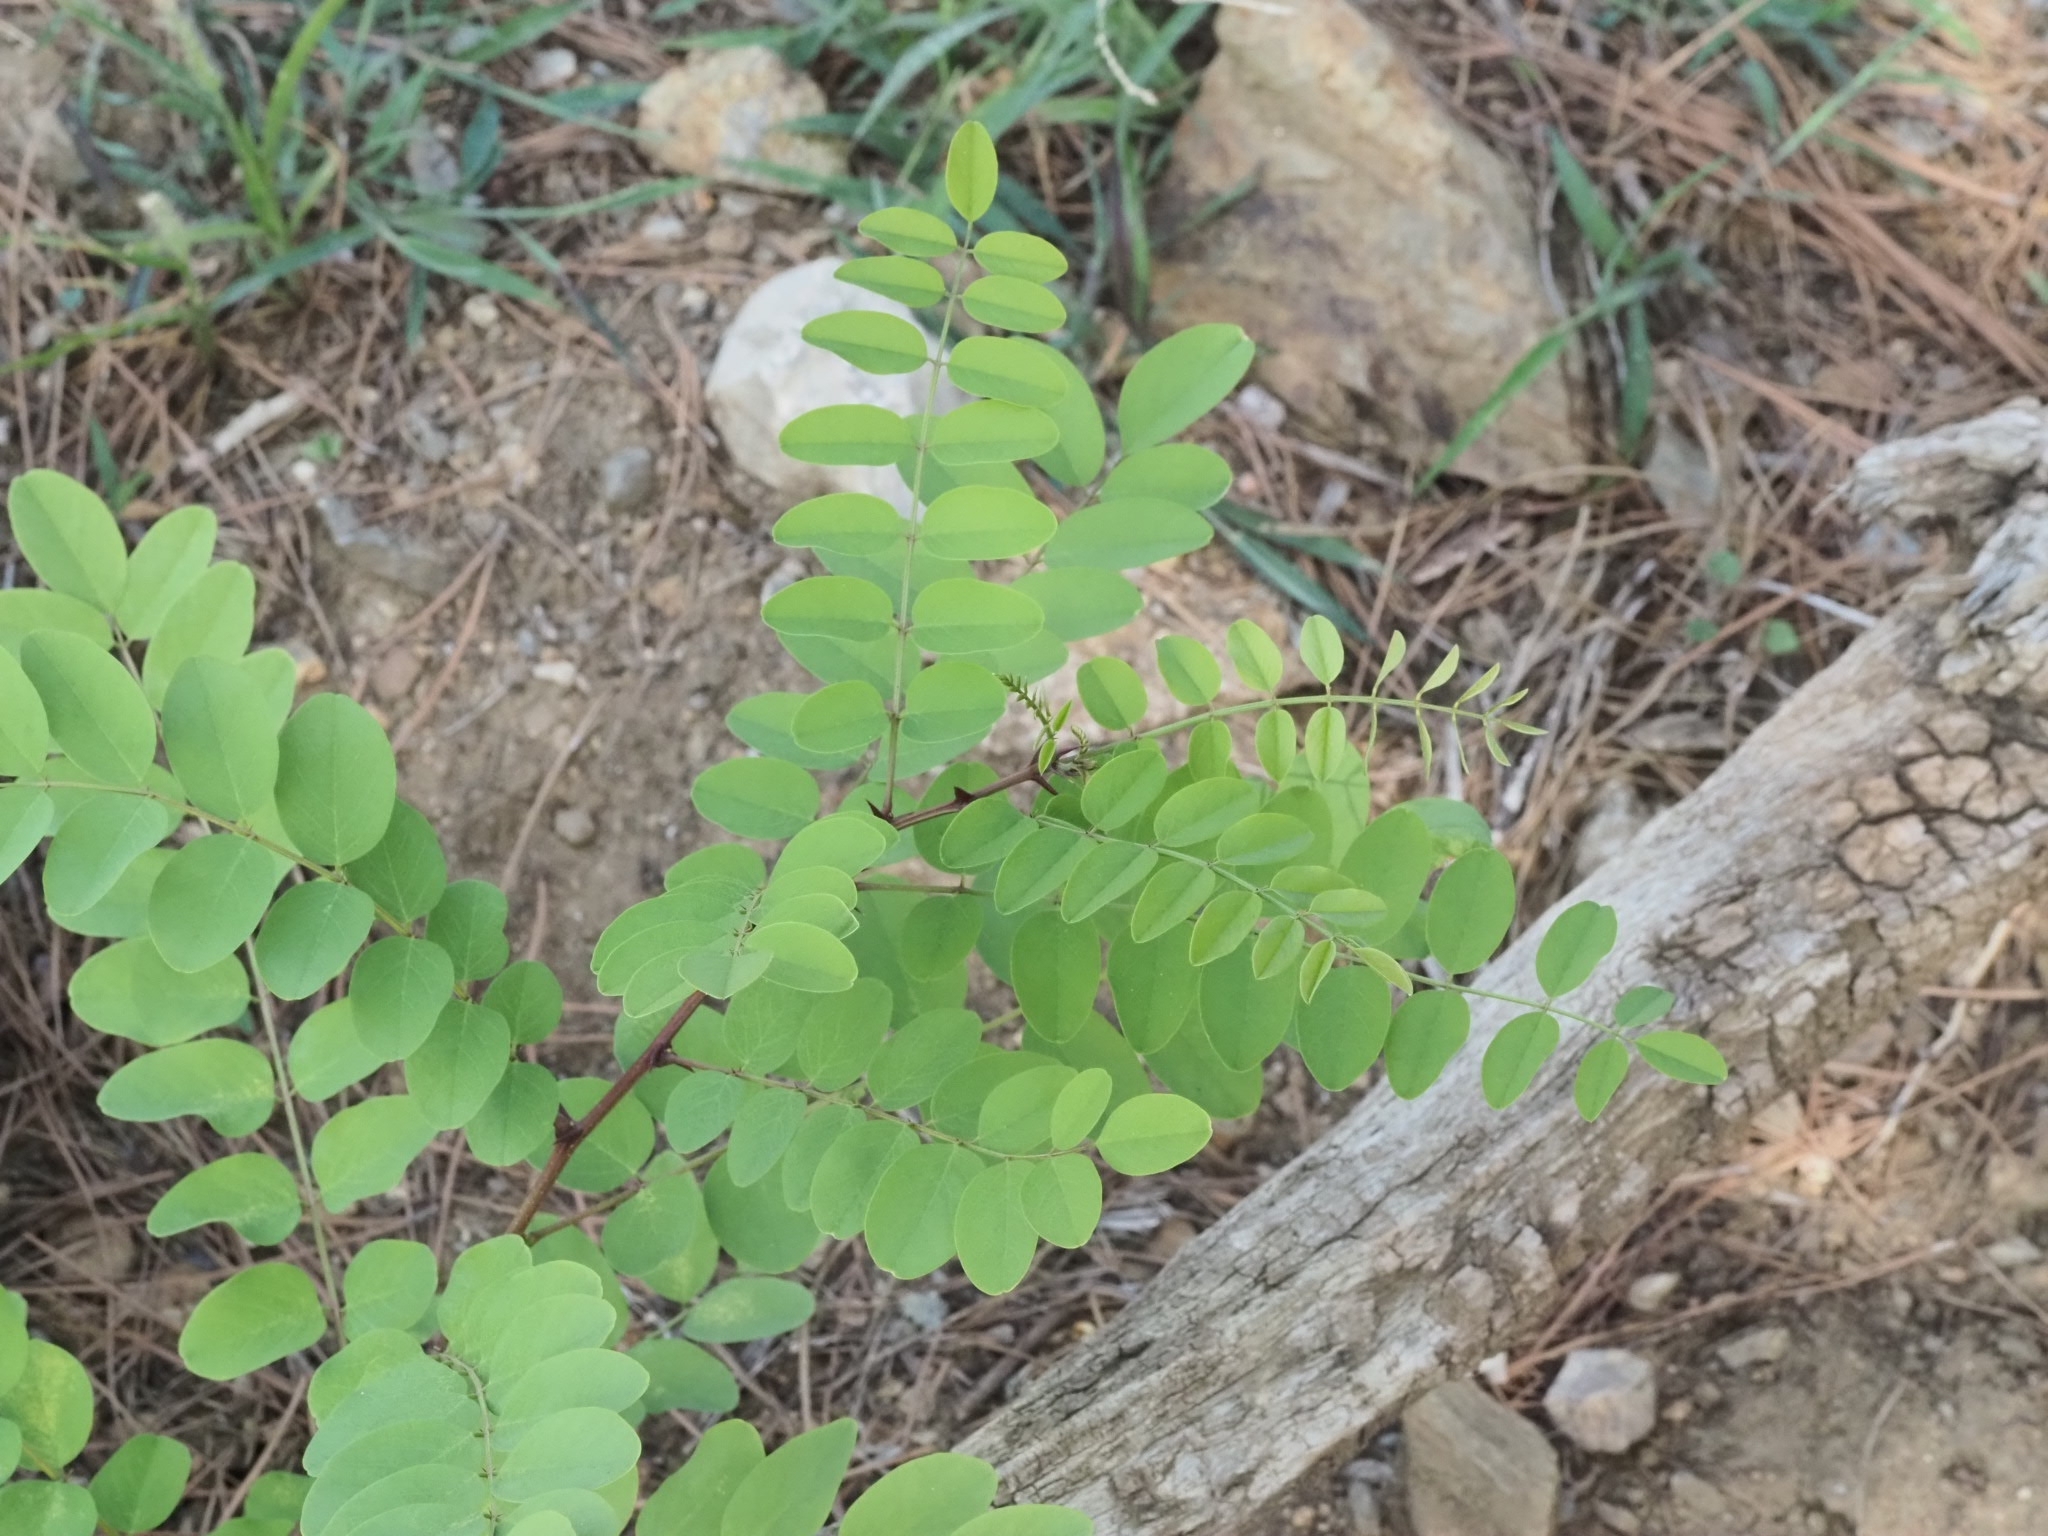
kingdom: Plantae
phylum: Tracheophyta
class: Magnoliopsida
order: Fabales
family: Fabaceae
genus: Robinia
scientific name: Robinia pseudoacacia
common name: Black locust
